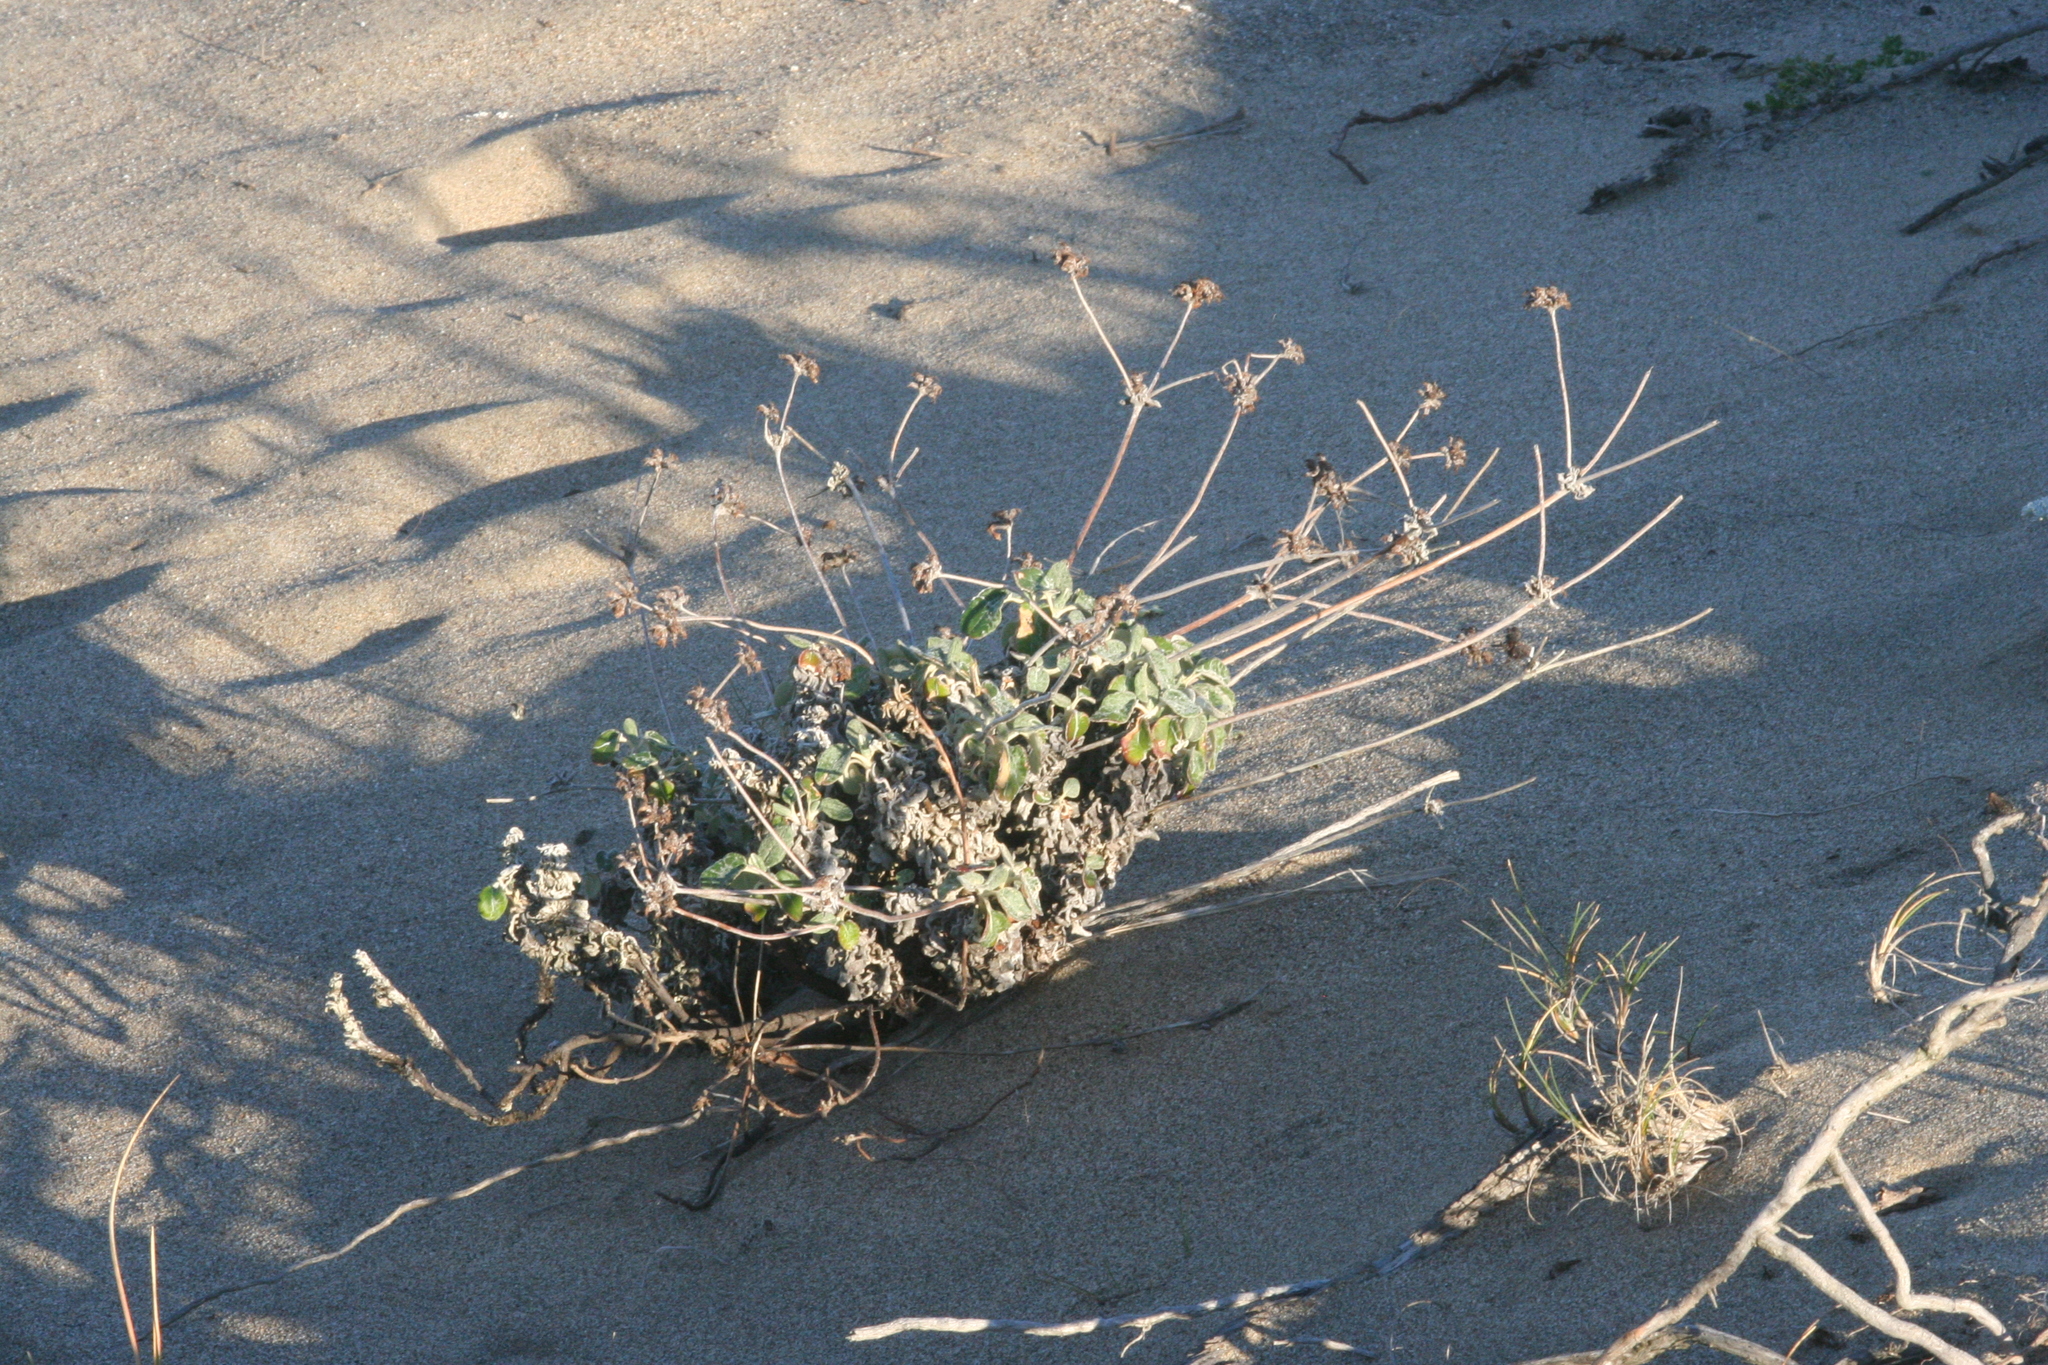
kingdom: Plantae
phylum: Tracheophyta
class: Magnoliopsida
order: Caryophyllales
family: Polygonaceae
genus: Eriogonum
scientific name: Eriogonum latifolium
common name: Seaside wild buckwheat
